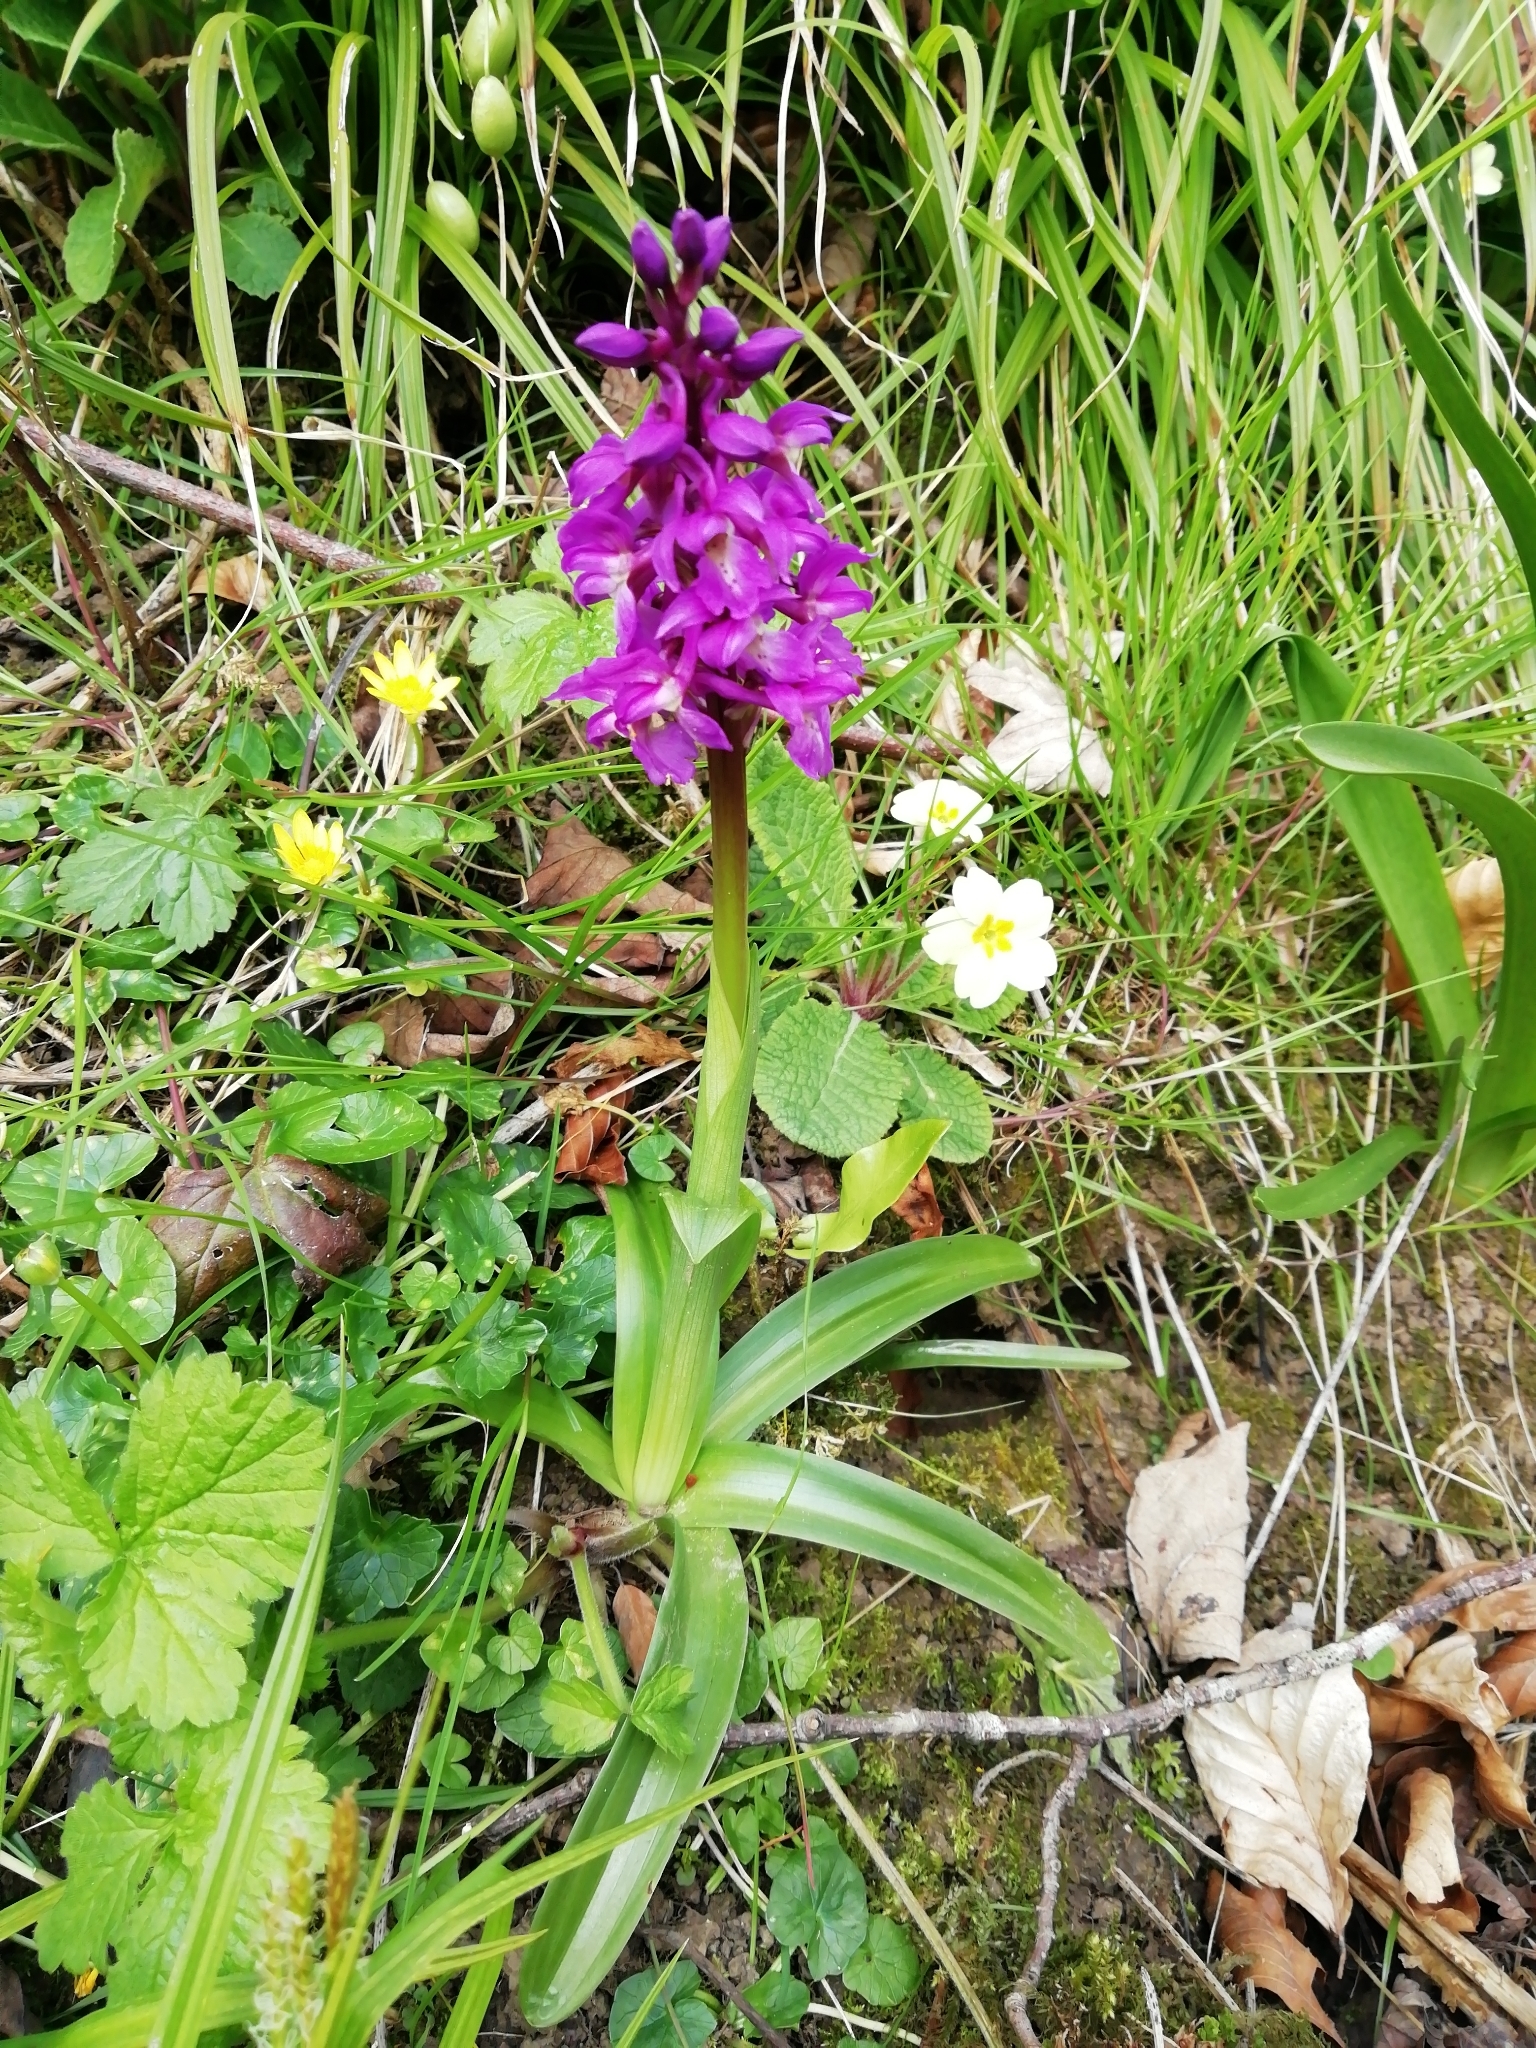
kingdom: Plantae
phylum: Tracheophyta
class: Liliopsida
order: Asparagales
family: Orchidaceae
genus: Orchis
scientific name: Orchis mascula
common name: Early-purple orchid
